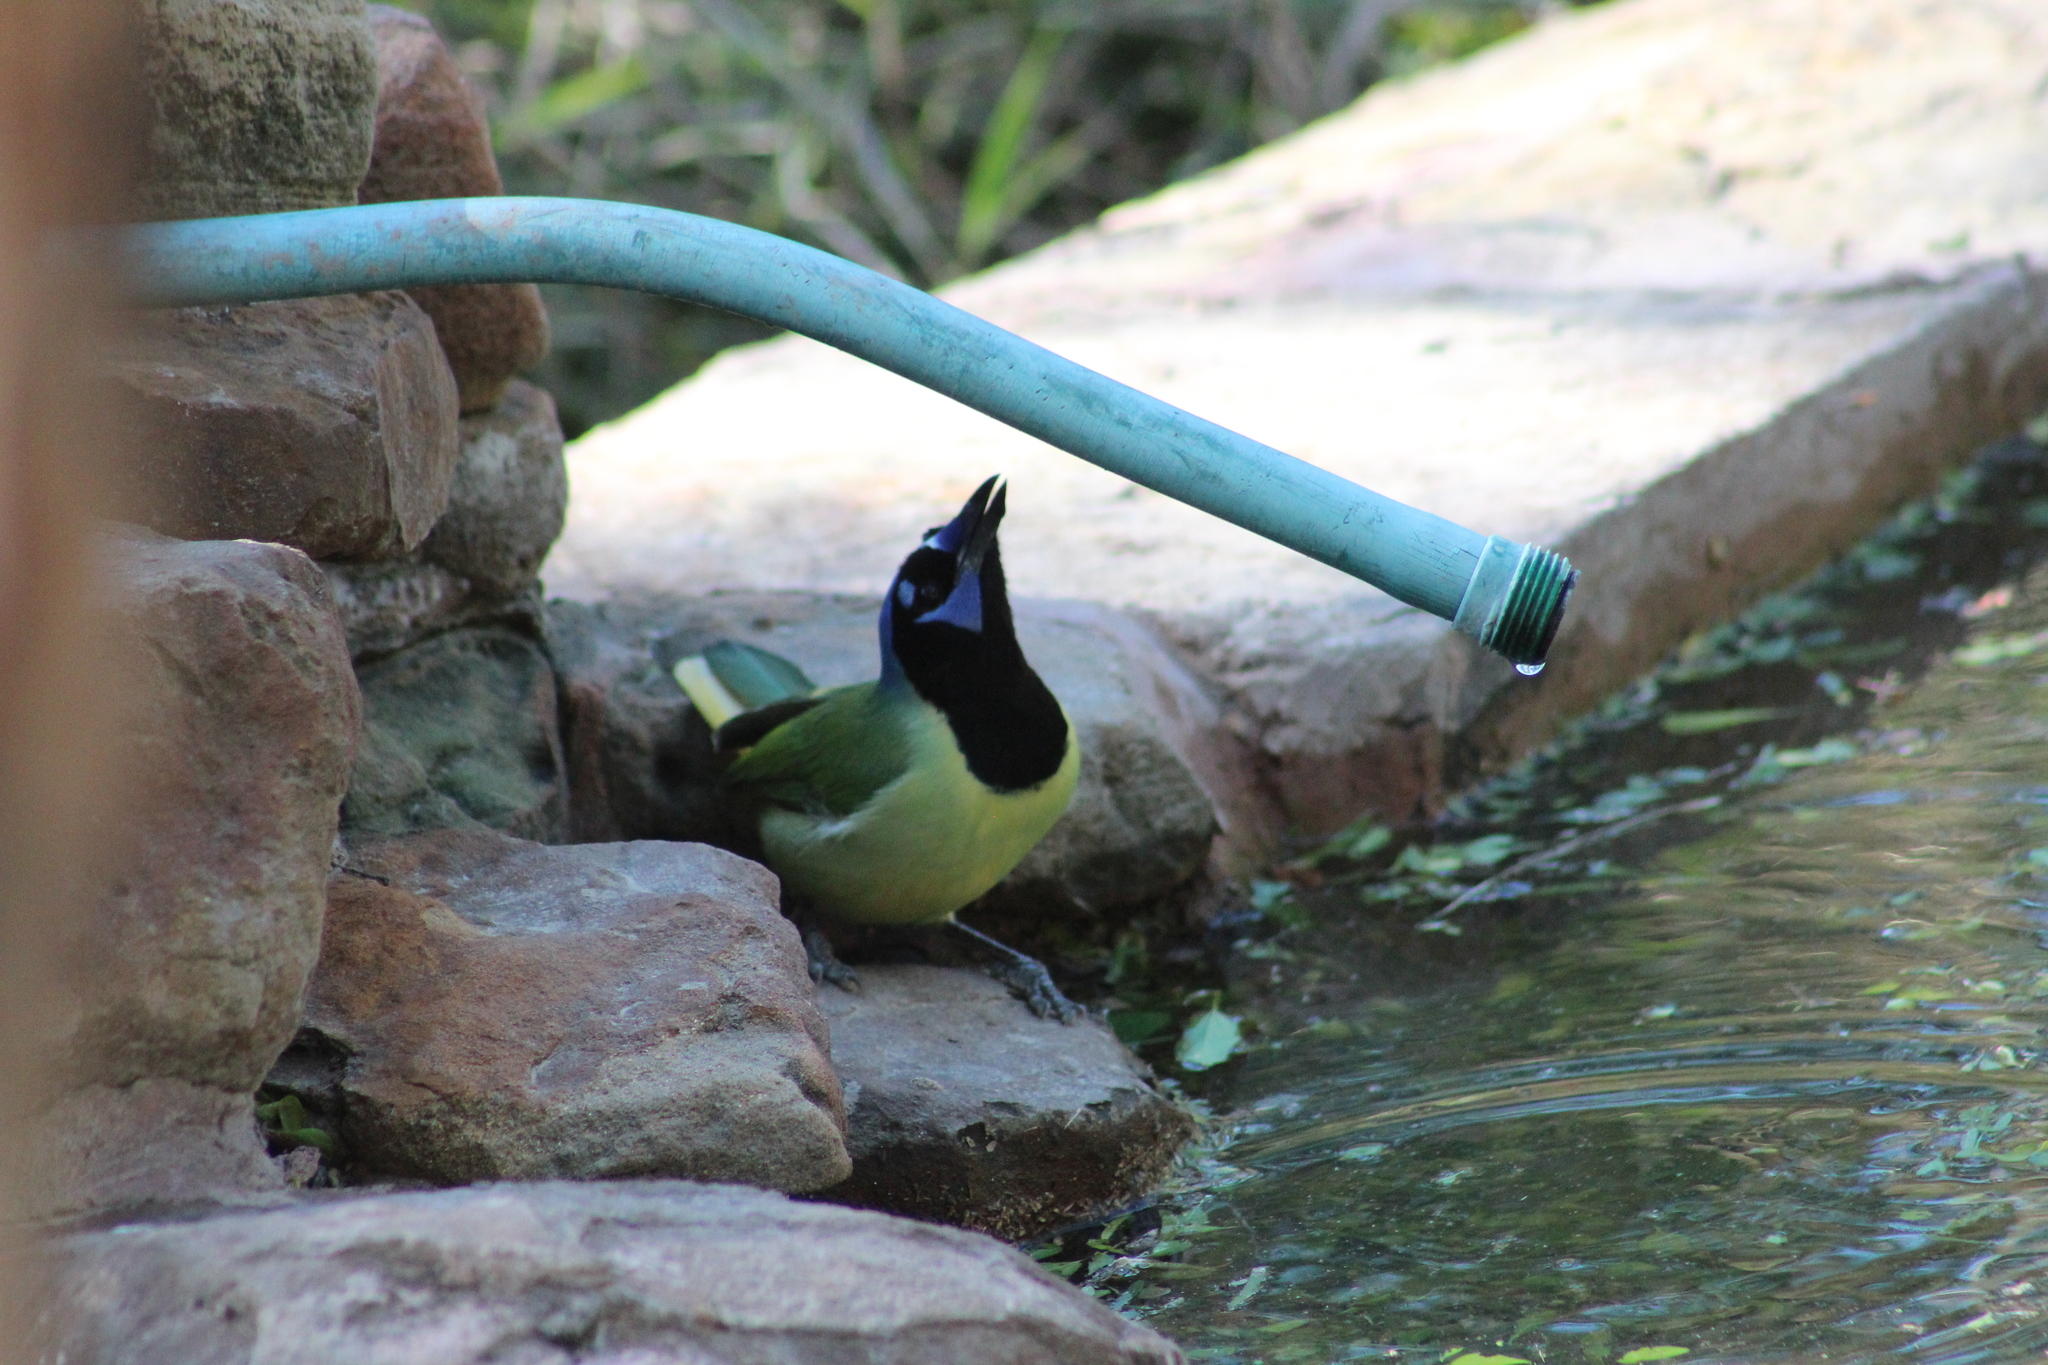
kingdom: Animalia
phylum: Chordata
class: Aves
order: Passeriformes
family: Corvidae
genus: Cyanocorax
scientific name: Cyanocorax yncas
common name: Green jay
